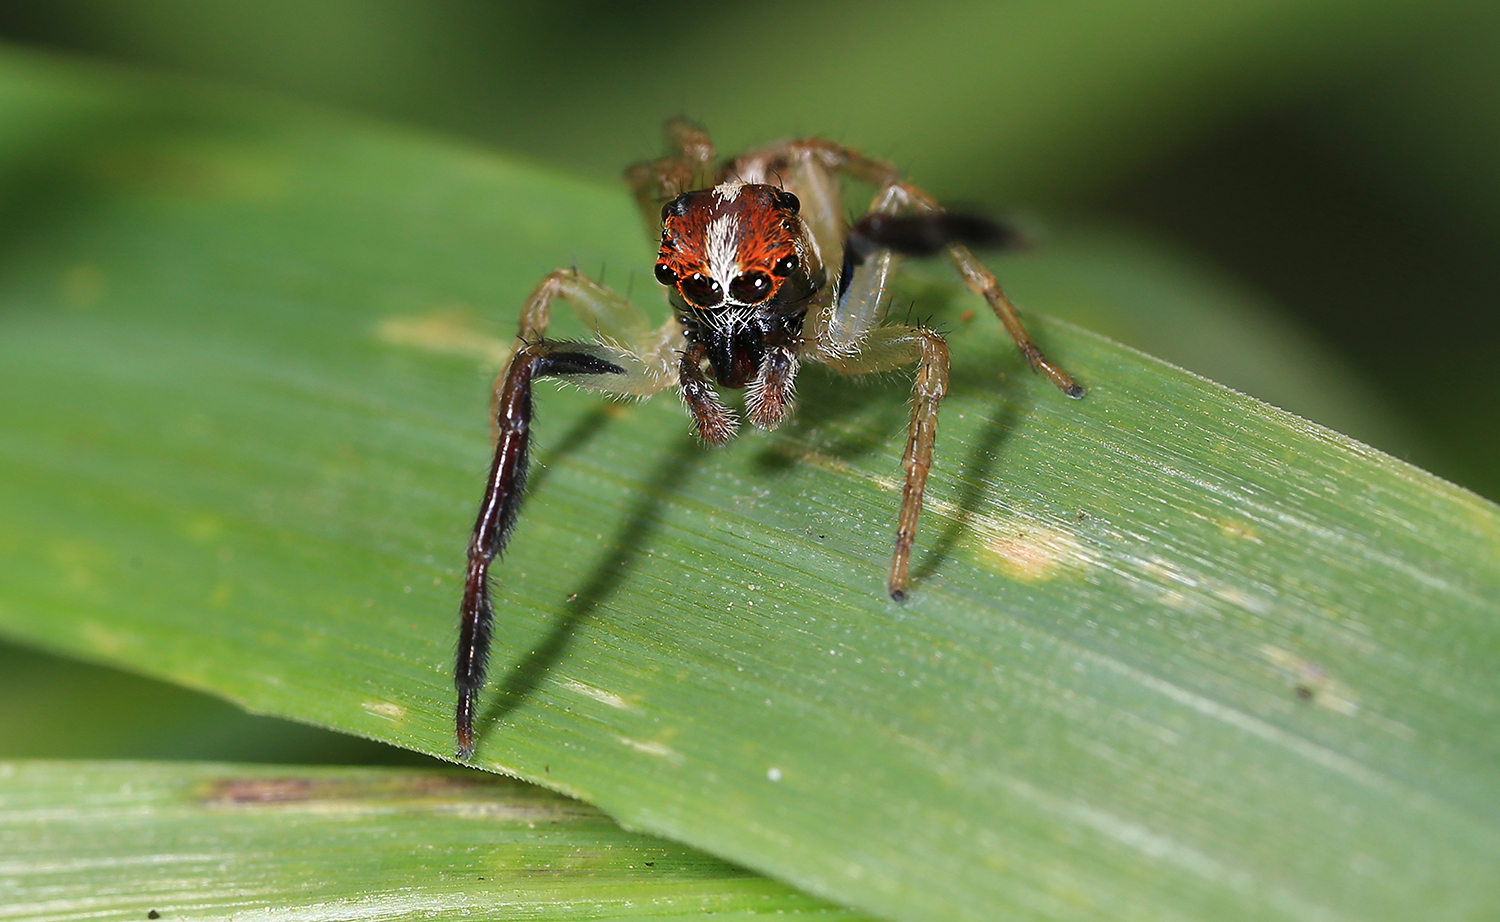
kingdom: Animalia
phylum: Arthropoda
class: Arachnida
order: Araneae
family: Salticidae
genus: Prostheclina
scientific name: Prostheclina amplior
